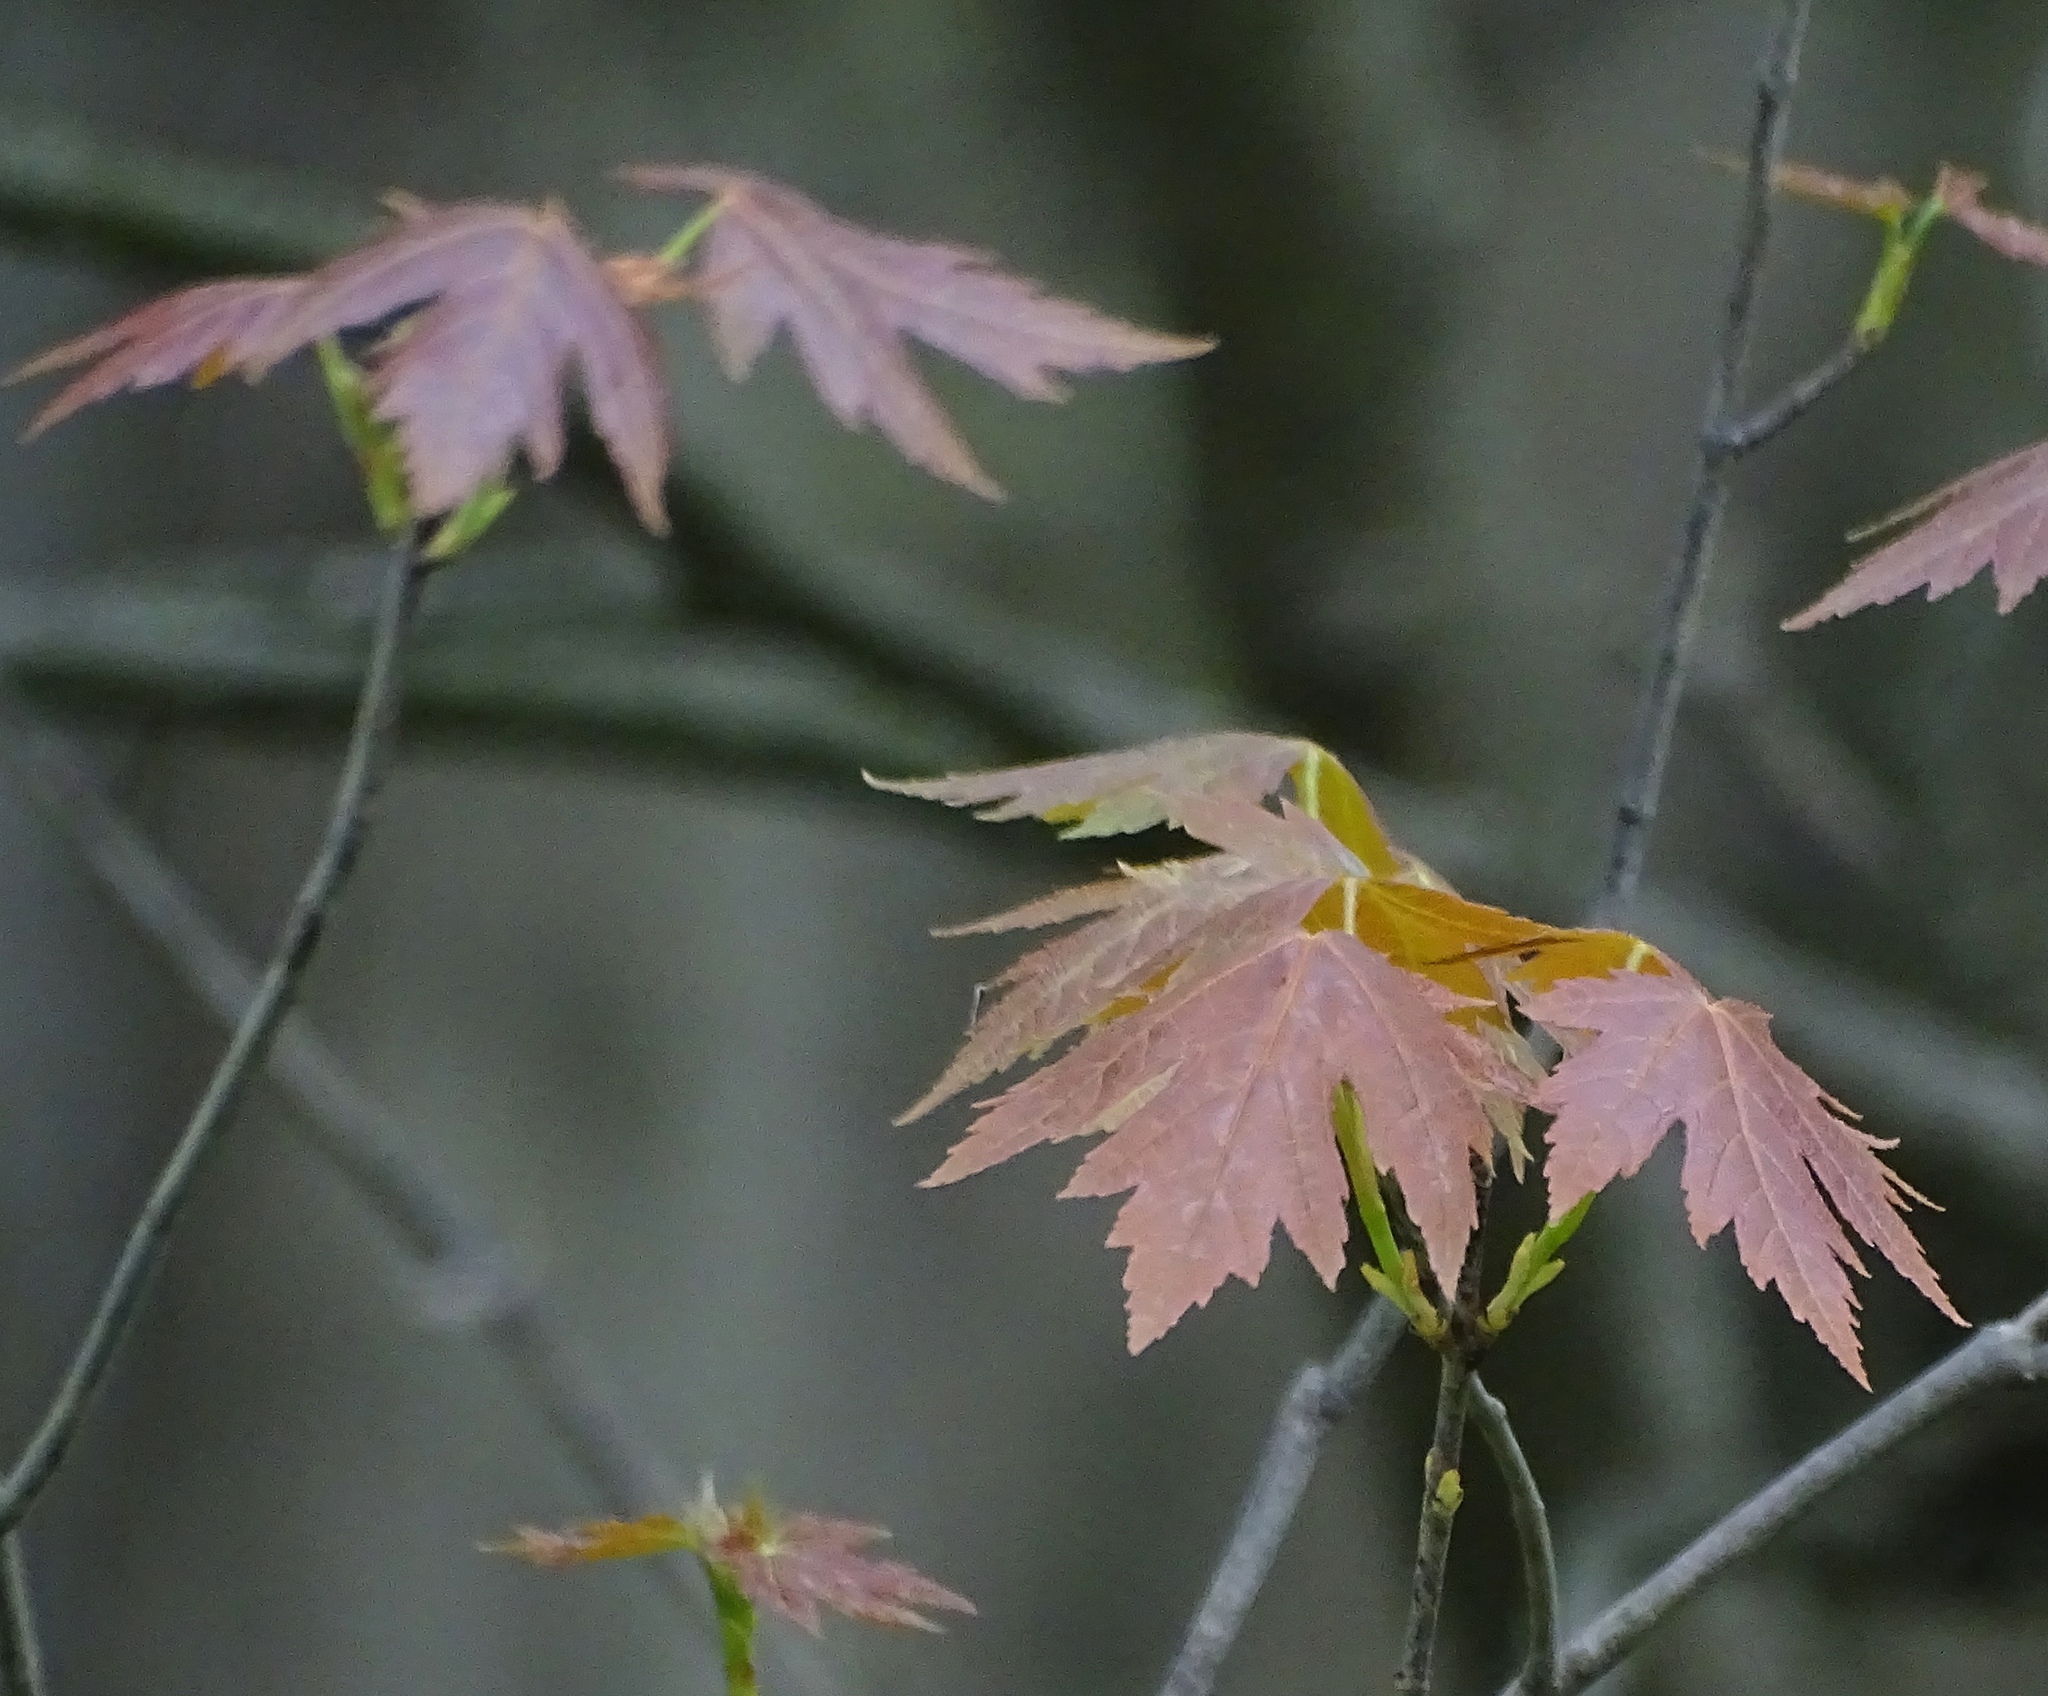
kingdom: Plantae
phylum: Tracheophyta
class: Magnoliopsida
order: Sapindales
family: Sapindaceae
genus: Acer
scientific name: Acer saccharinum
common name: Silver maple
